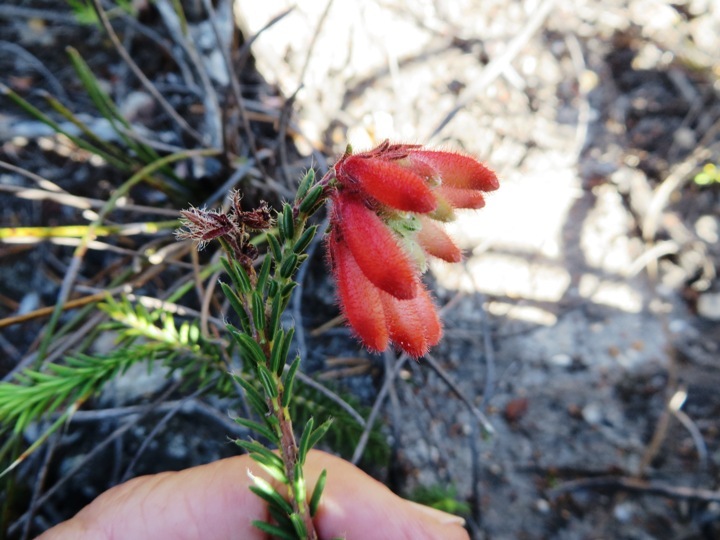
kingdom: Plantae
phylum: Tracheophyta
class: Magnoliopsida
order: Ericales
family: Ericaceae
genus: Erica
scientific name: Erica cerinthoides
